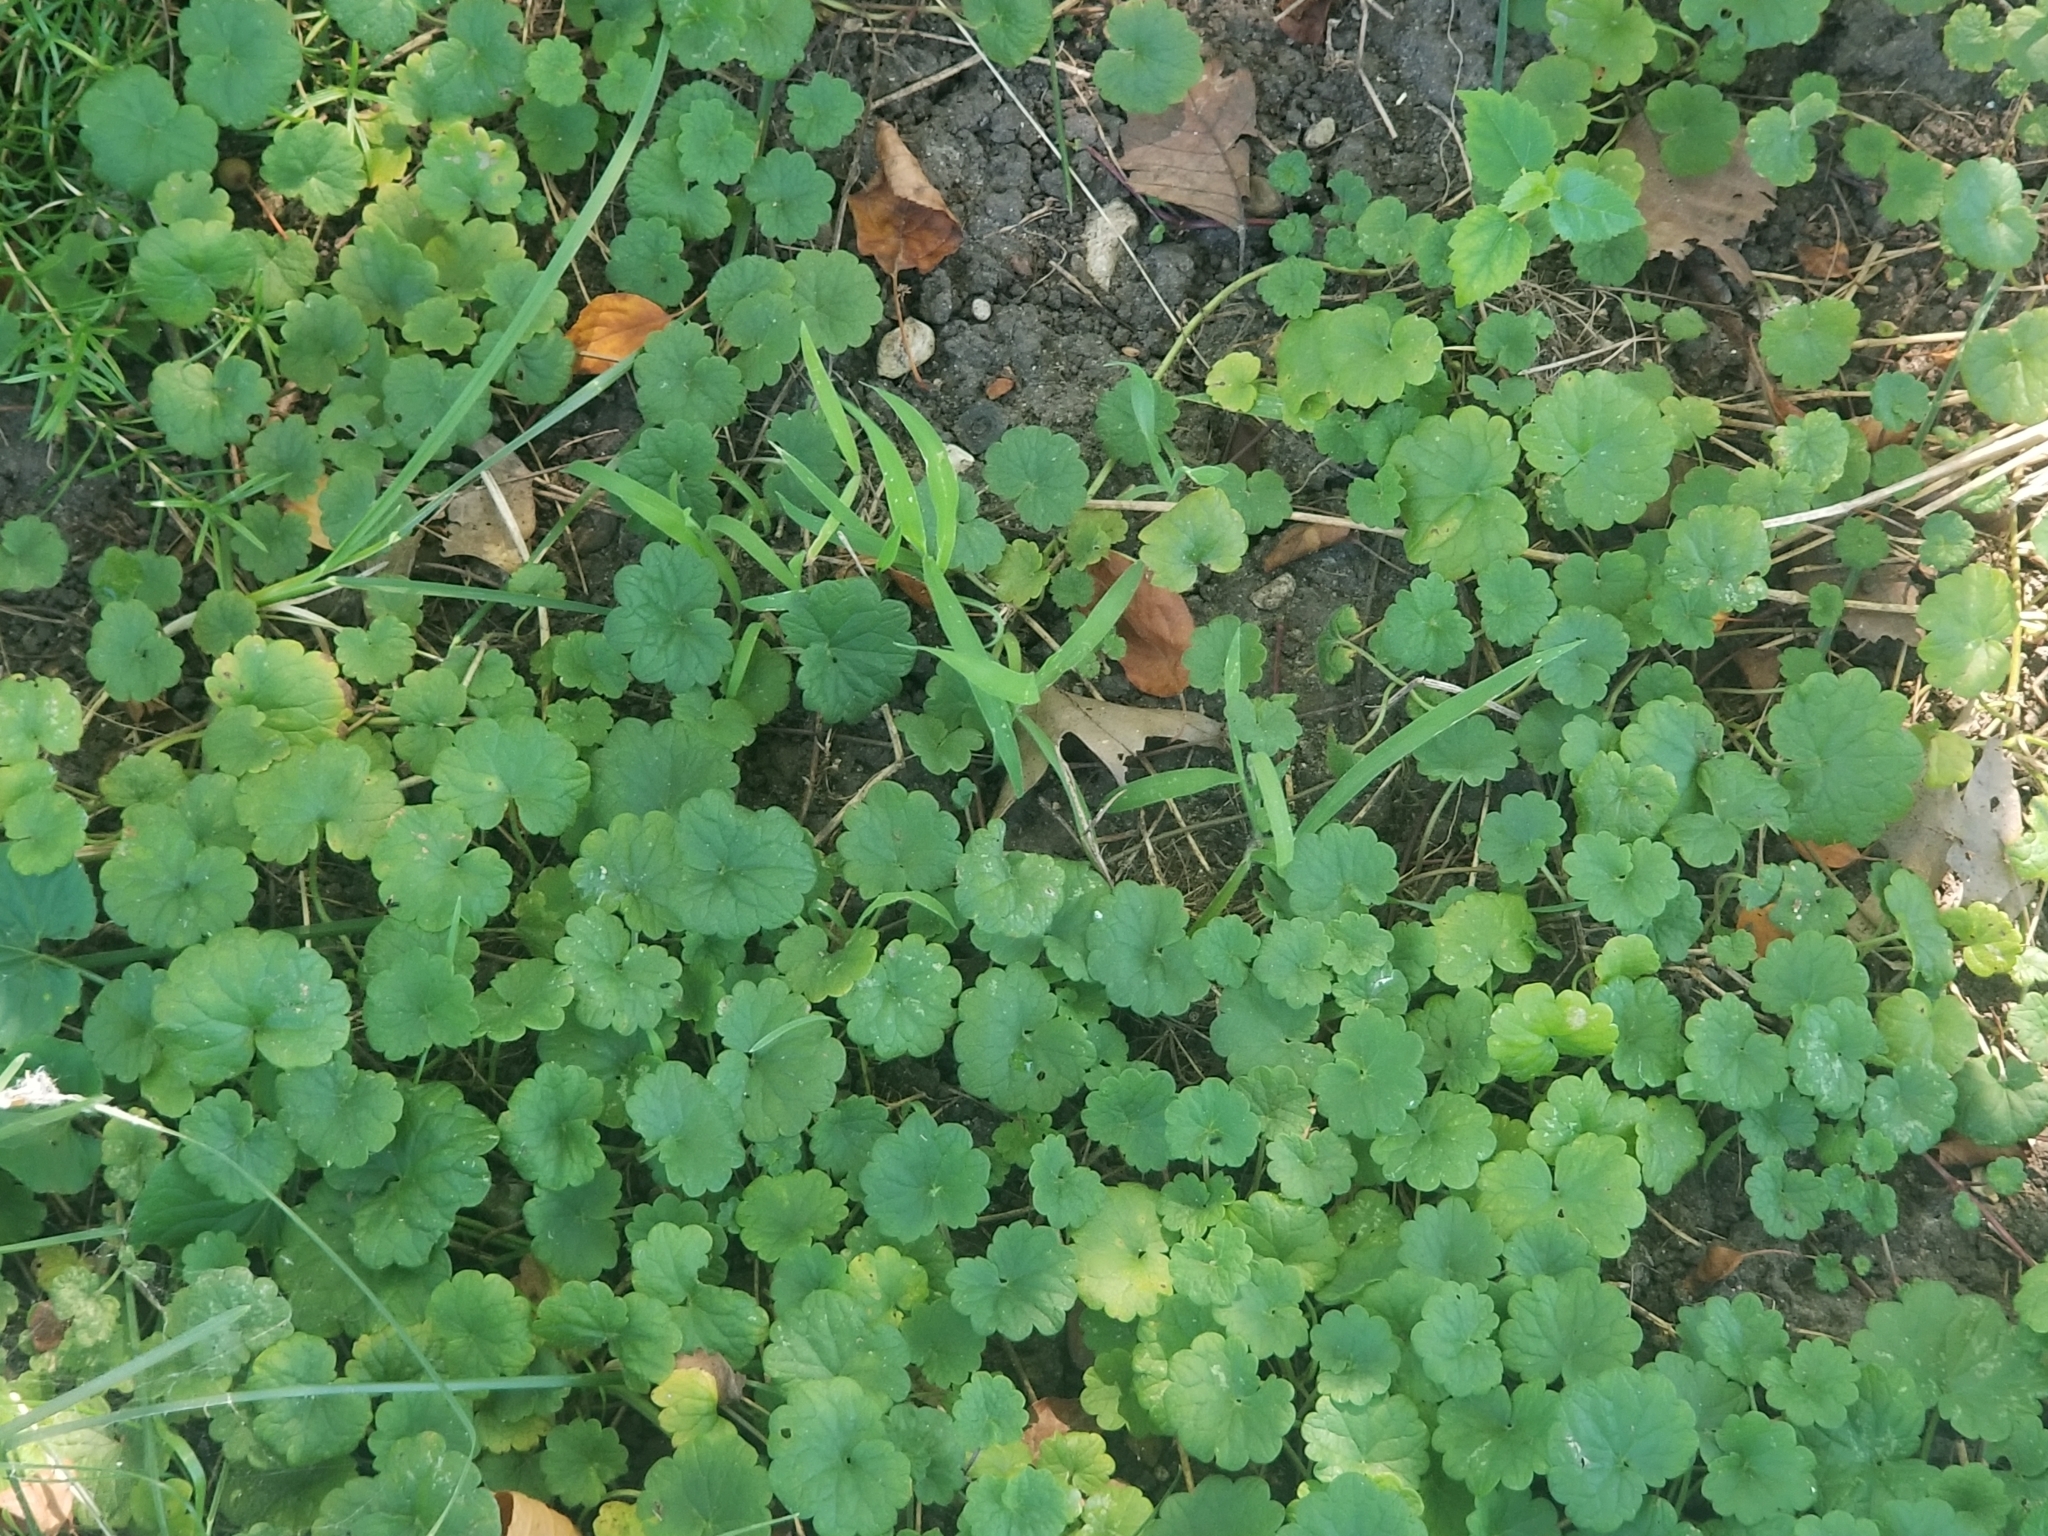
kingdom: Plantae
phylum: Tracheophyta
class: Magnoliopsida
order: Lamiales
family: Lamiaceae
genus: Glechoma
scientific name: Glechoma hederacea
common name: Ground ivy
